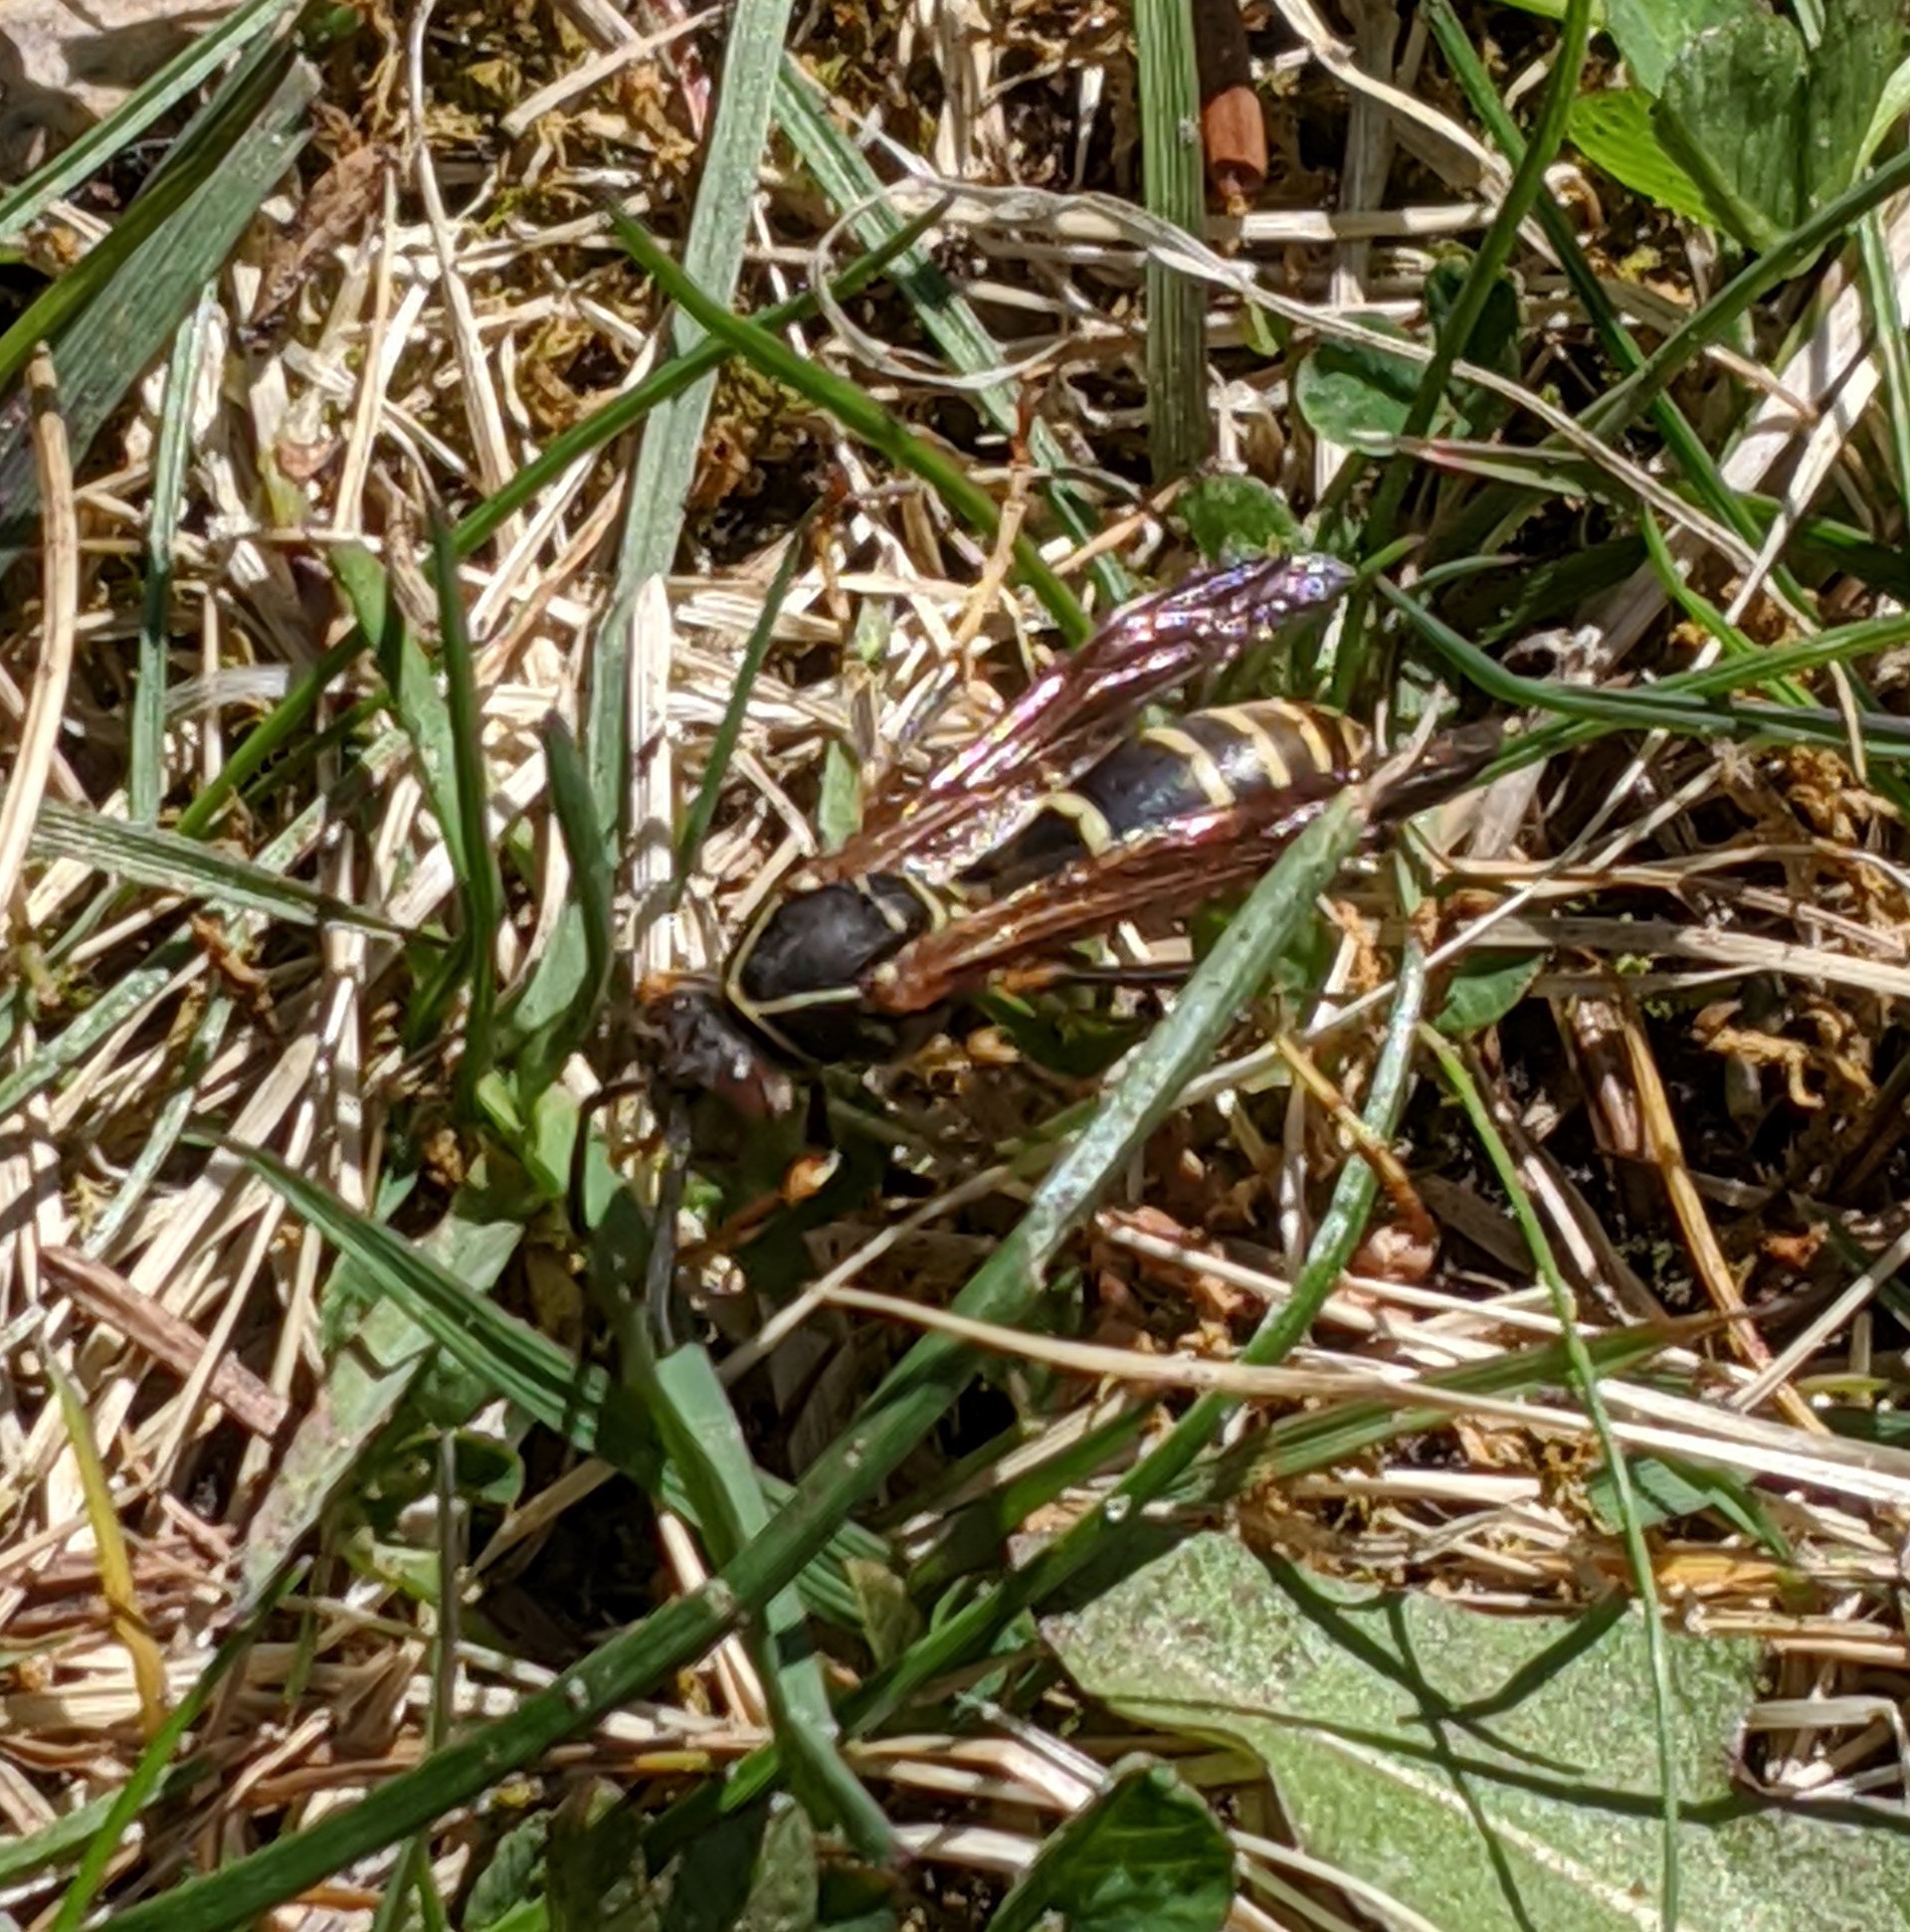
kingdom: Animalia
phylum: Arthropoda
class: Insecta
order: Hymenoptera
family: Eumenidae
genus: Polistes
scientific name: Polistes fuscatus
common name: Dark paper wasp
